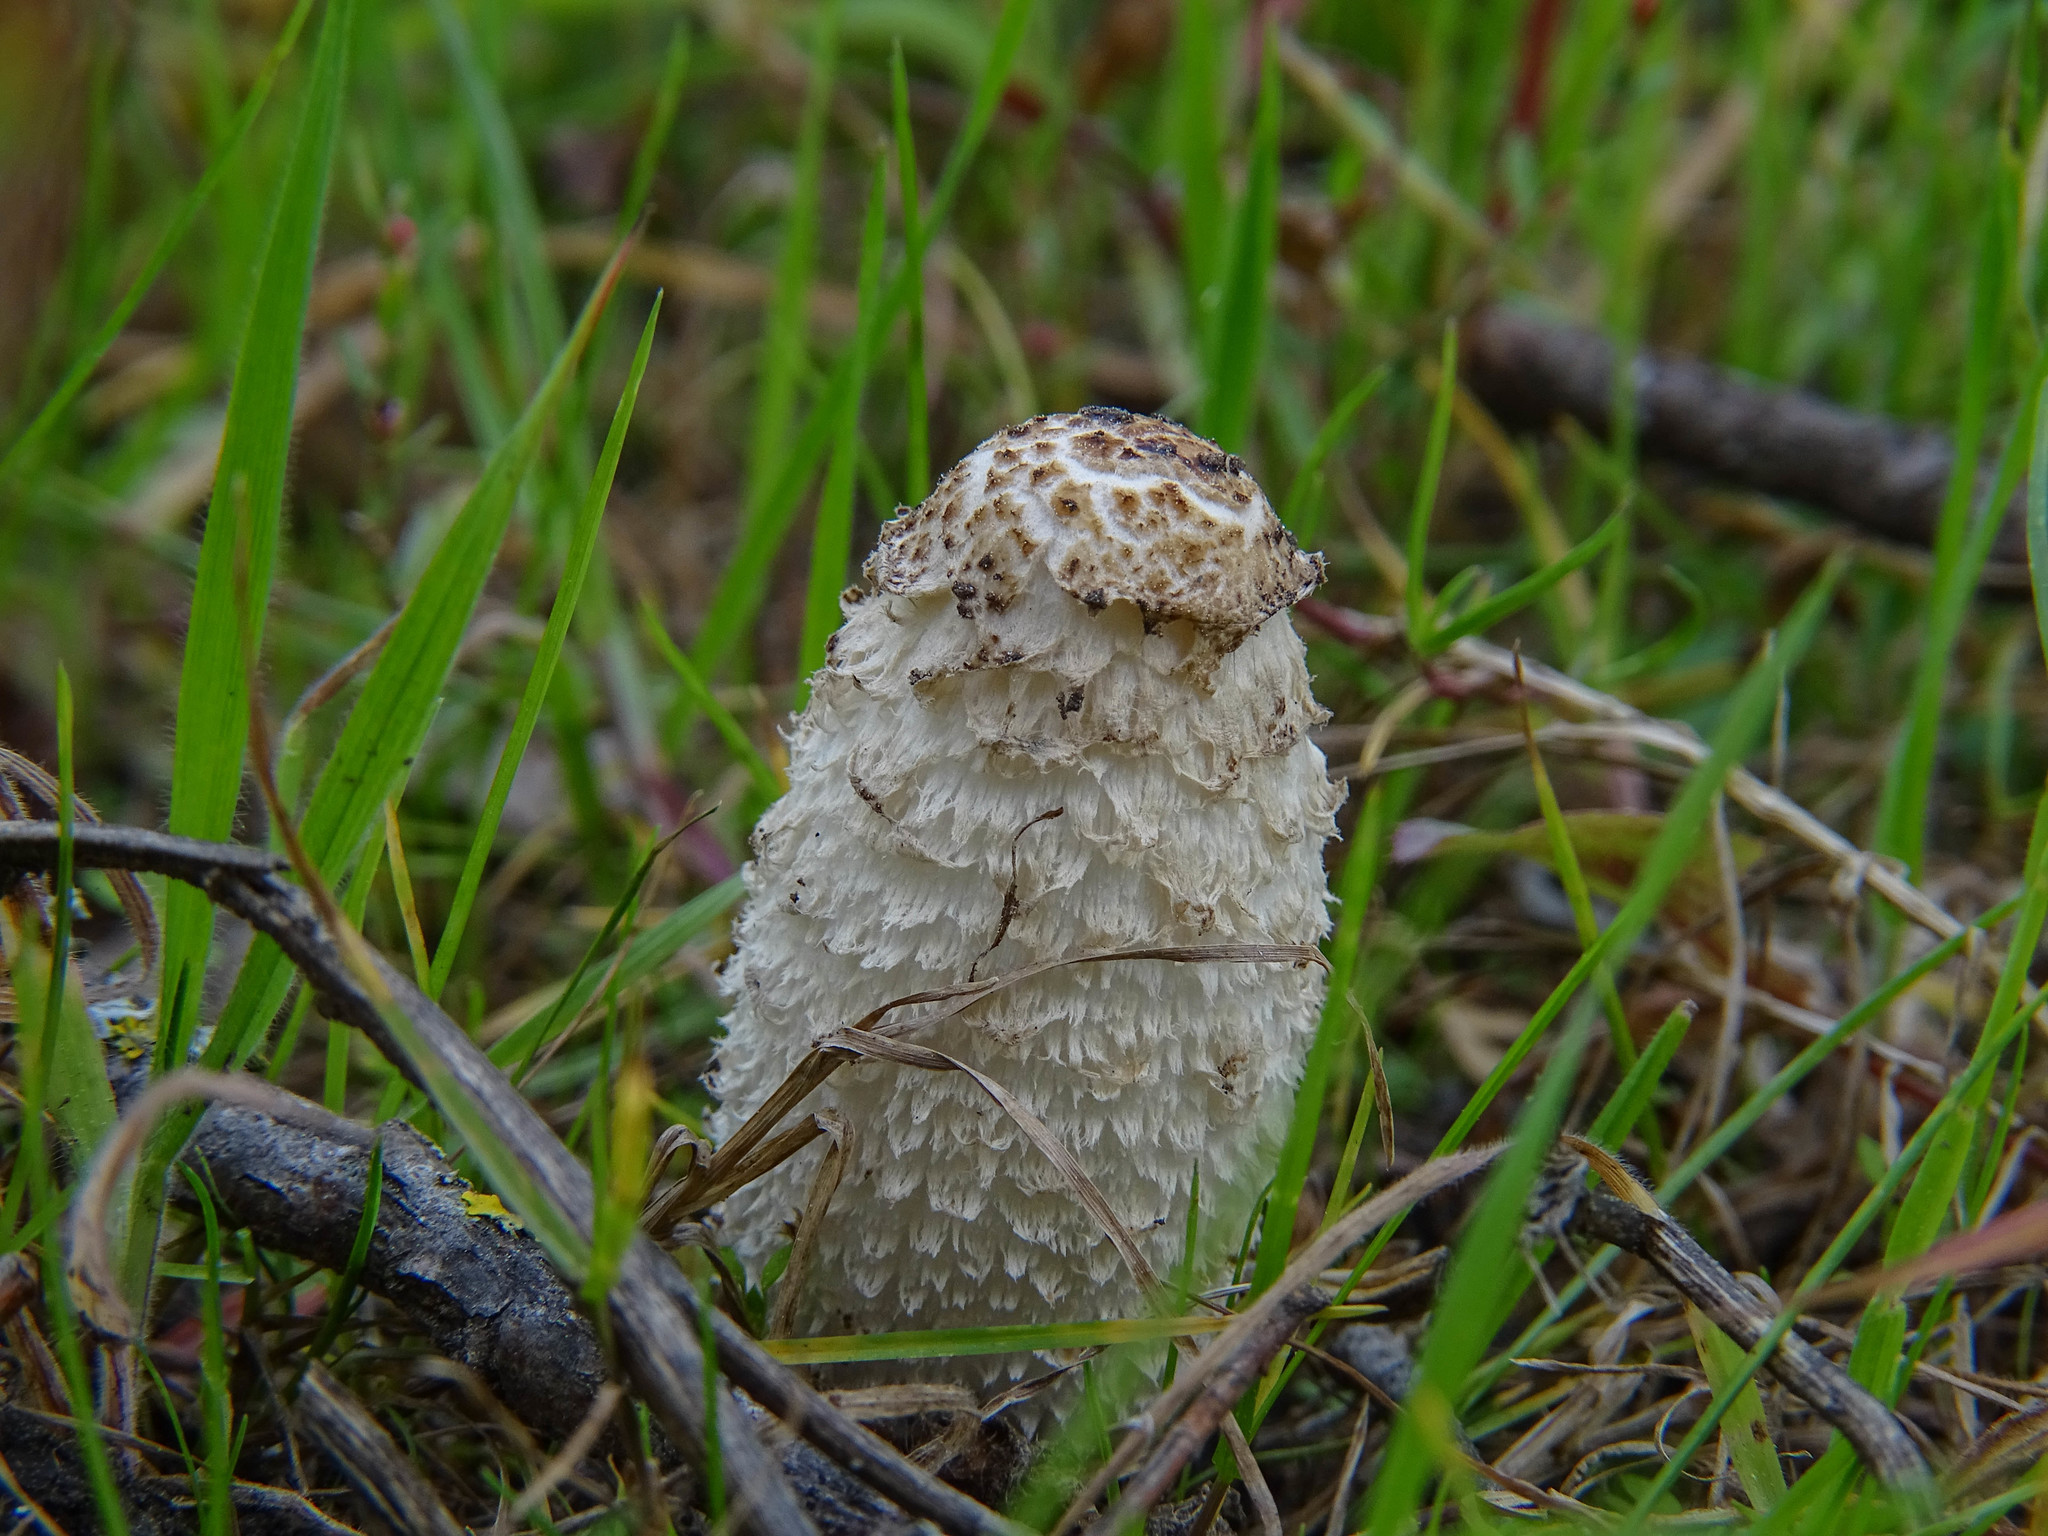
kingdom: Fungi
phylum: Basidiomycota
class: Agaricomycetes
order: Agaricales
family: Agaricaceae
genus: Coprinus
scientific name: Coprinus comatus
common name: Lawyer's wig
